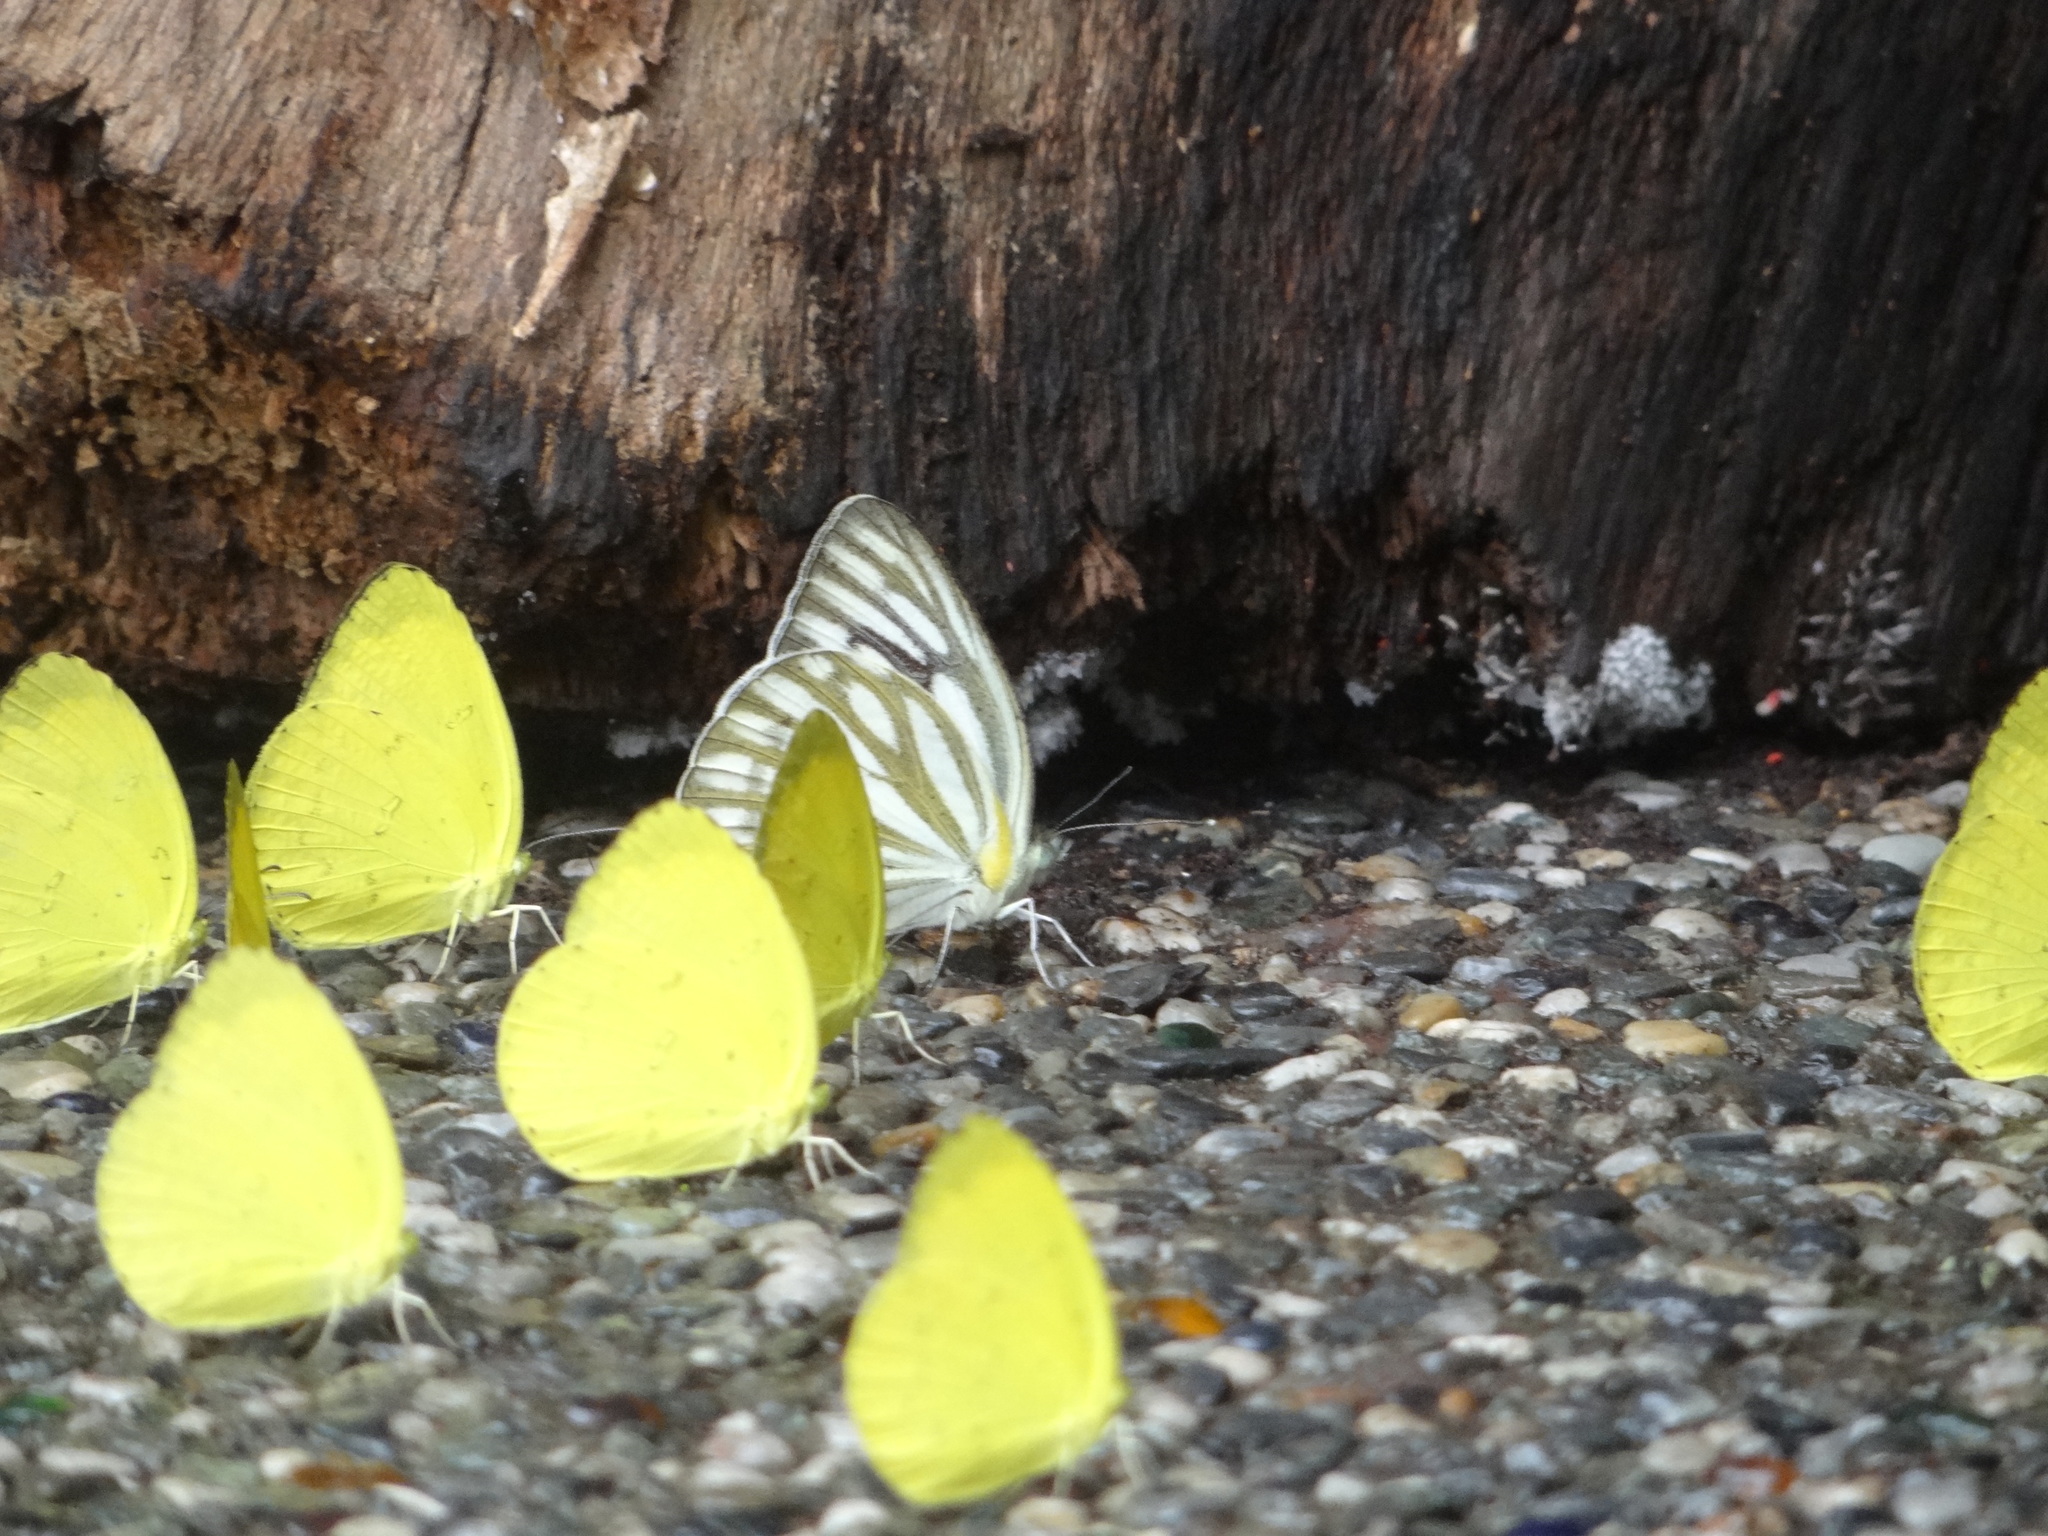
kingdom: Animalia
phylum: Arthropoda
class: Insecta
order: Lepidoptera
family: Pieridae
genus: Cepora
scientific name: Cepora nerissa
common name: Common gull
